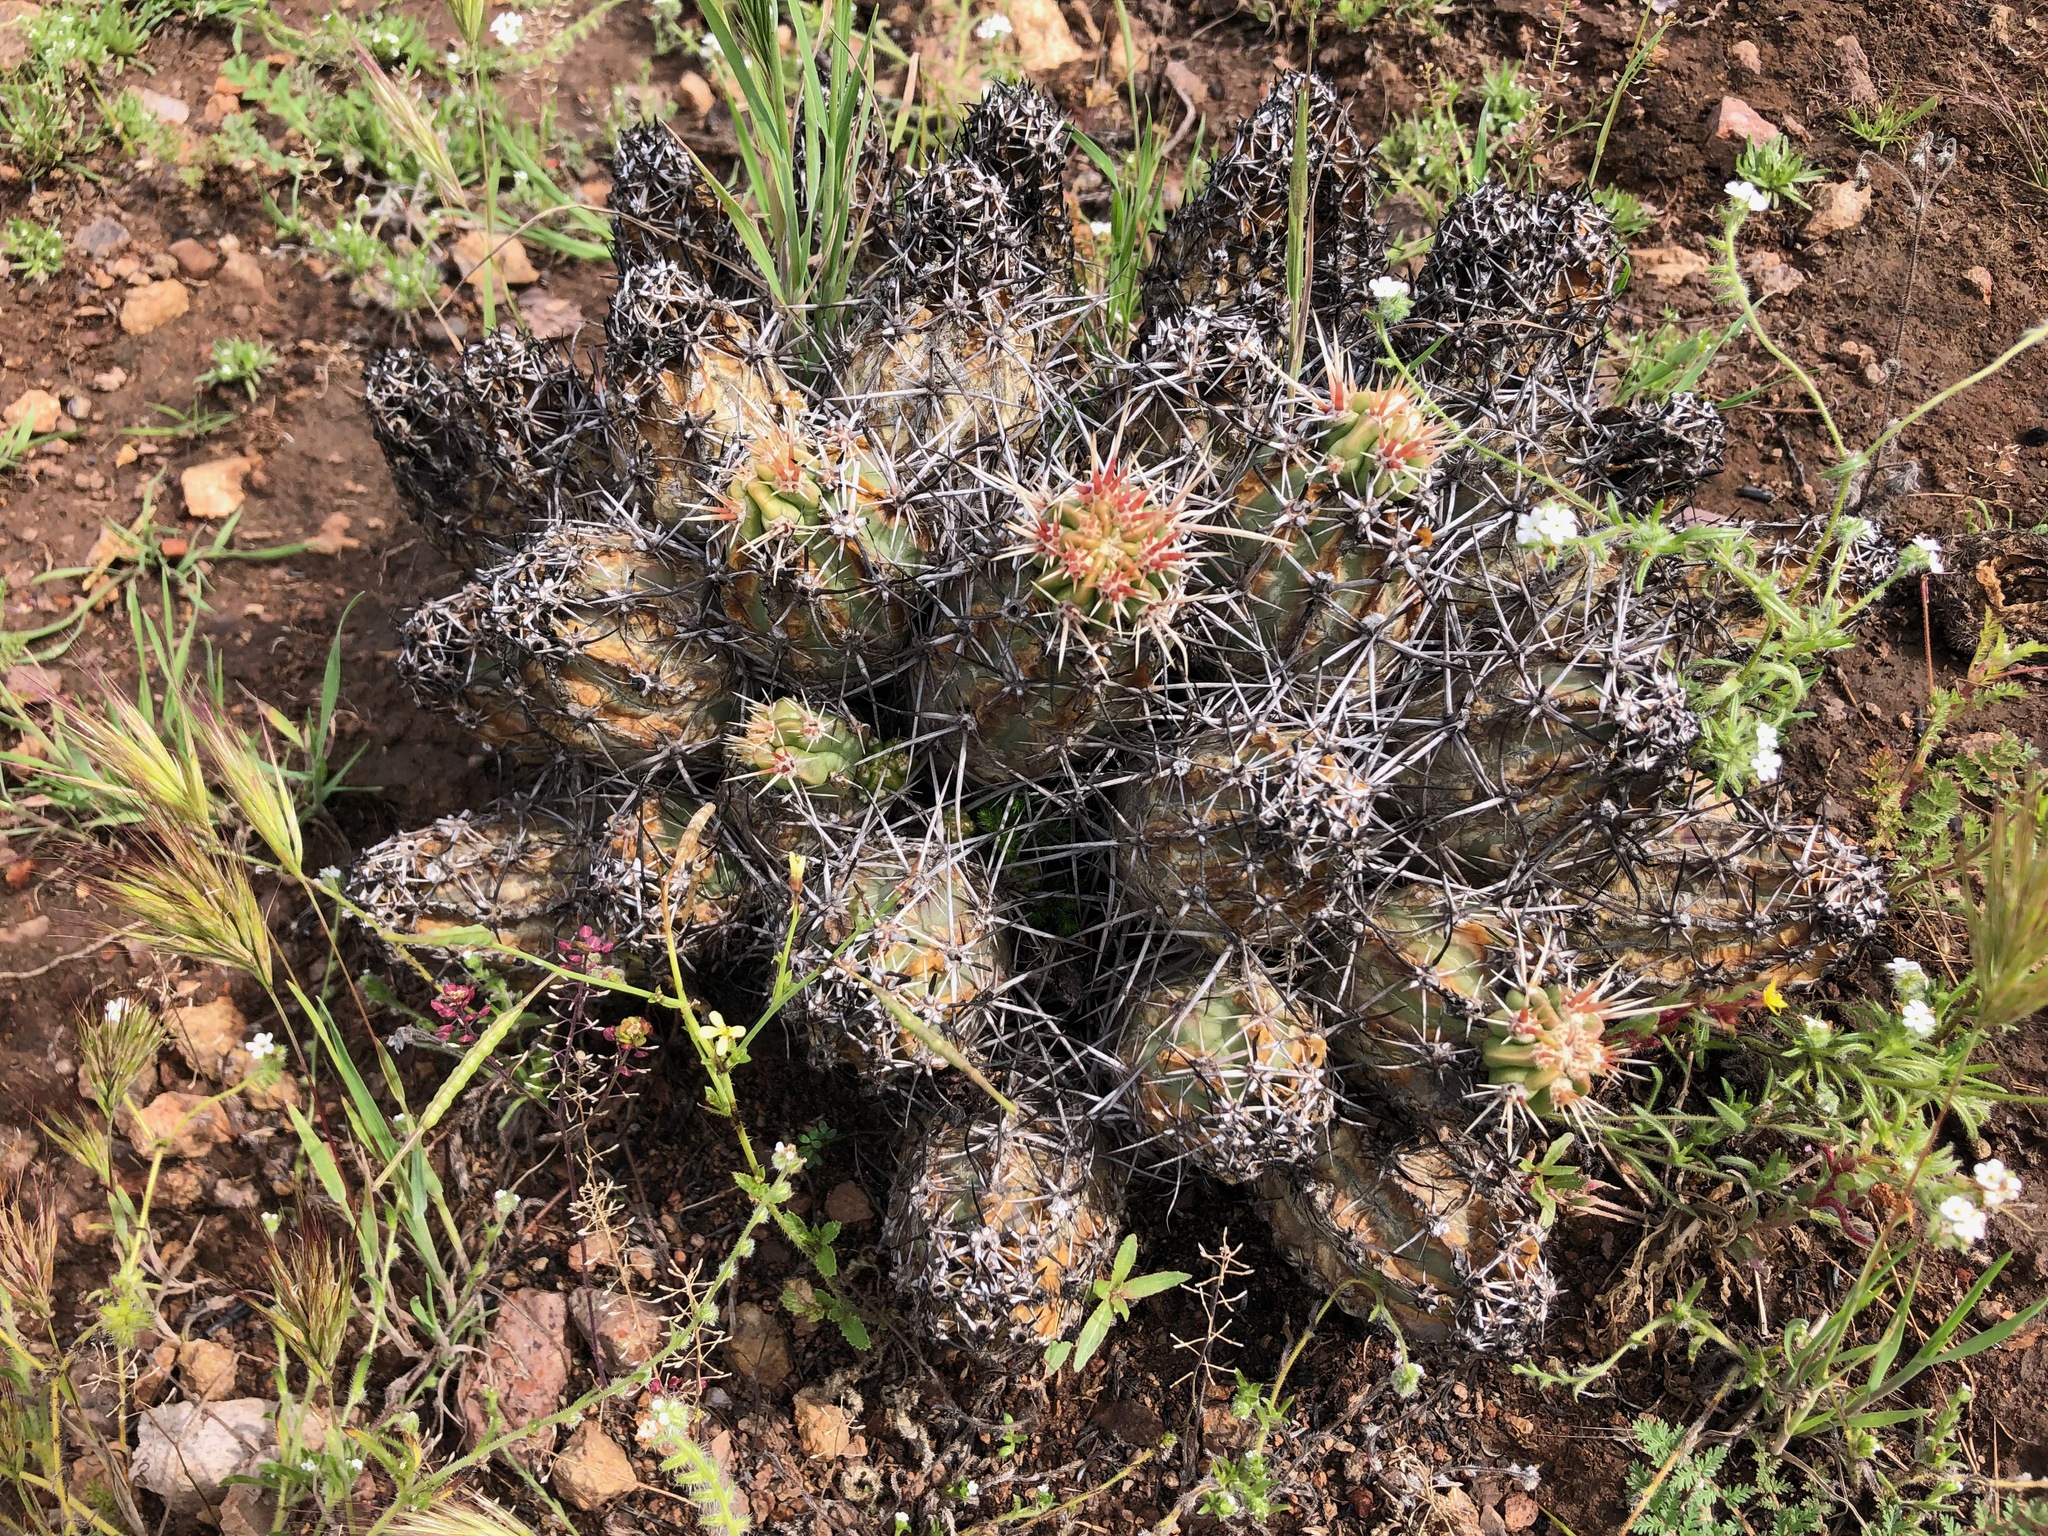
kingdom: Plantae
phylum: Tracheophyta
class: Magnoliopsida
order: Caryophyllales
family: Cactaceae
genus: Echinocereus
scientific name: Echinocereus maritimus
